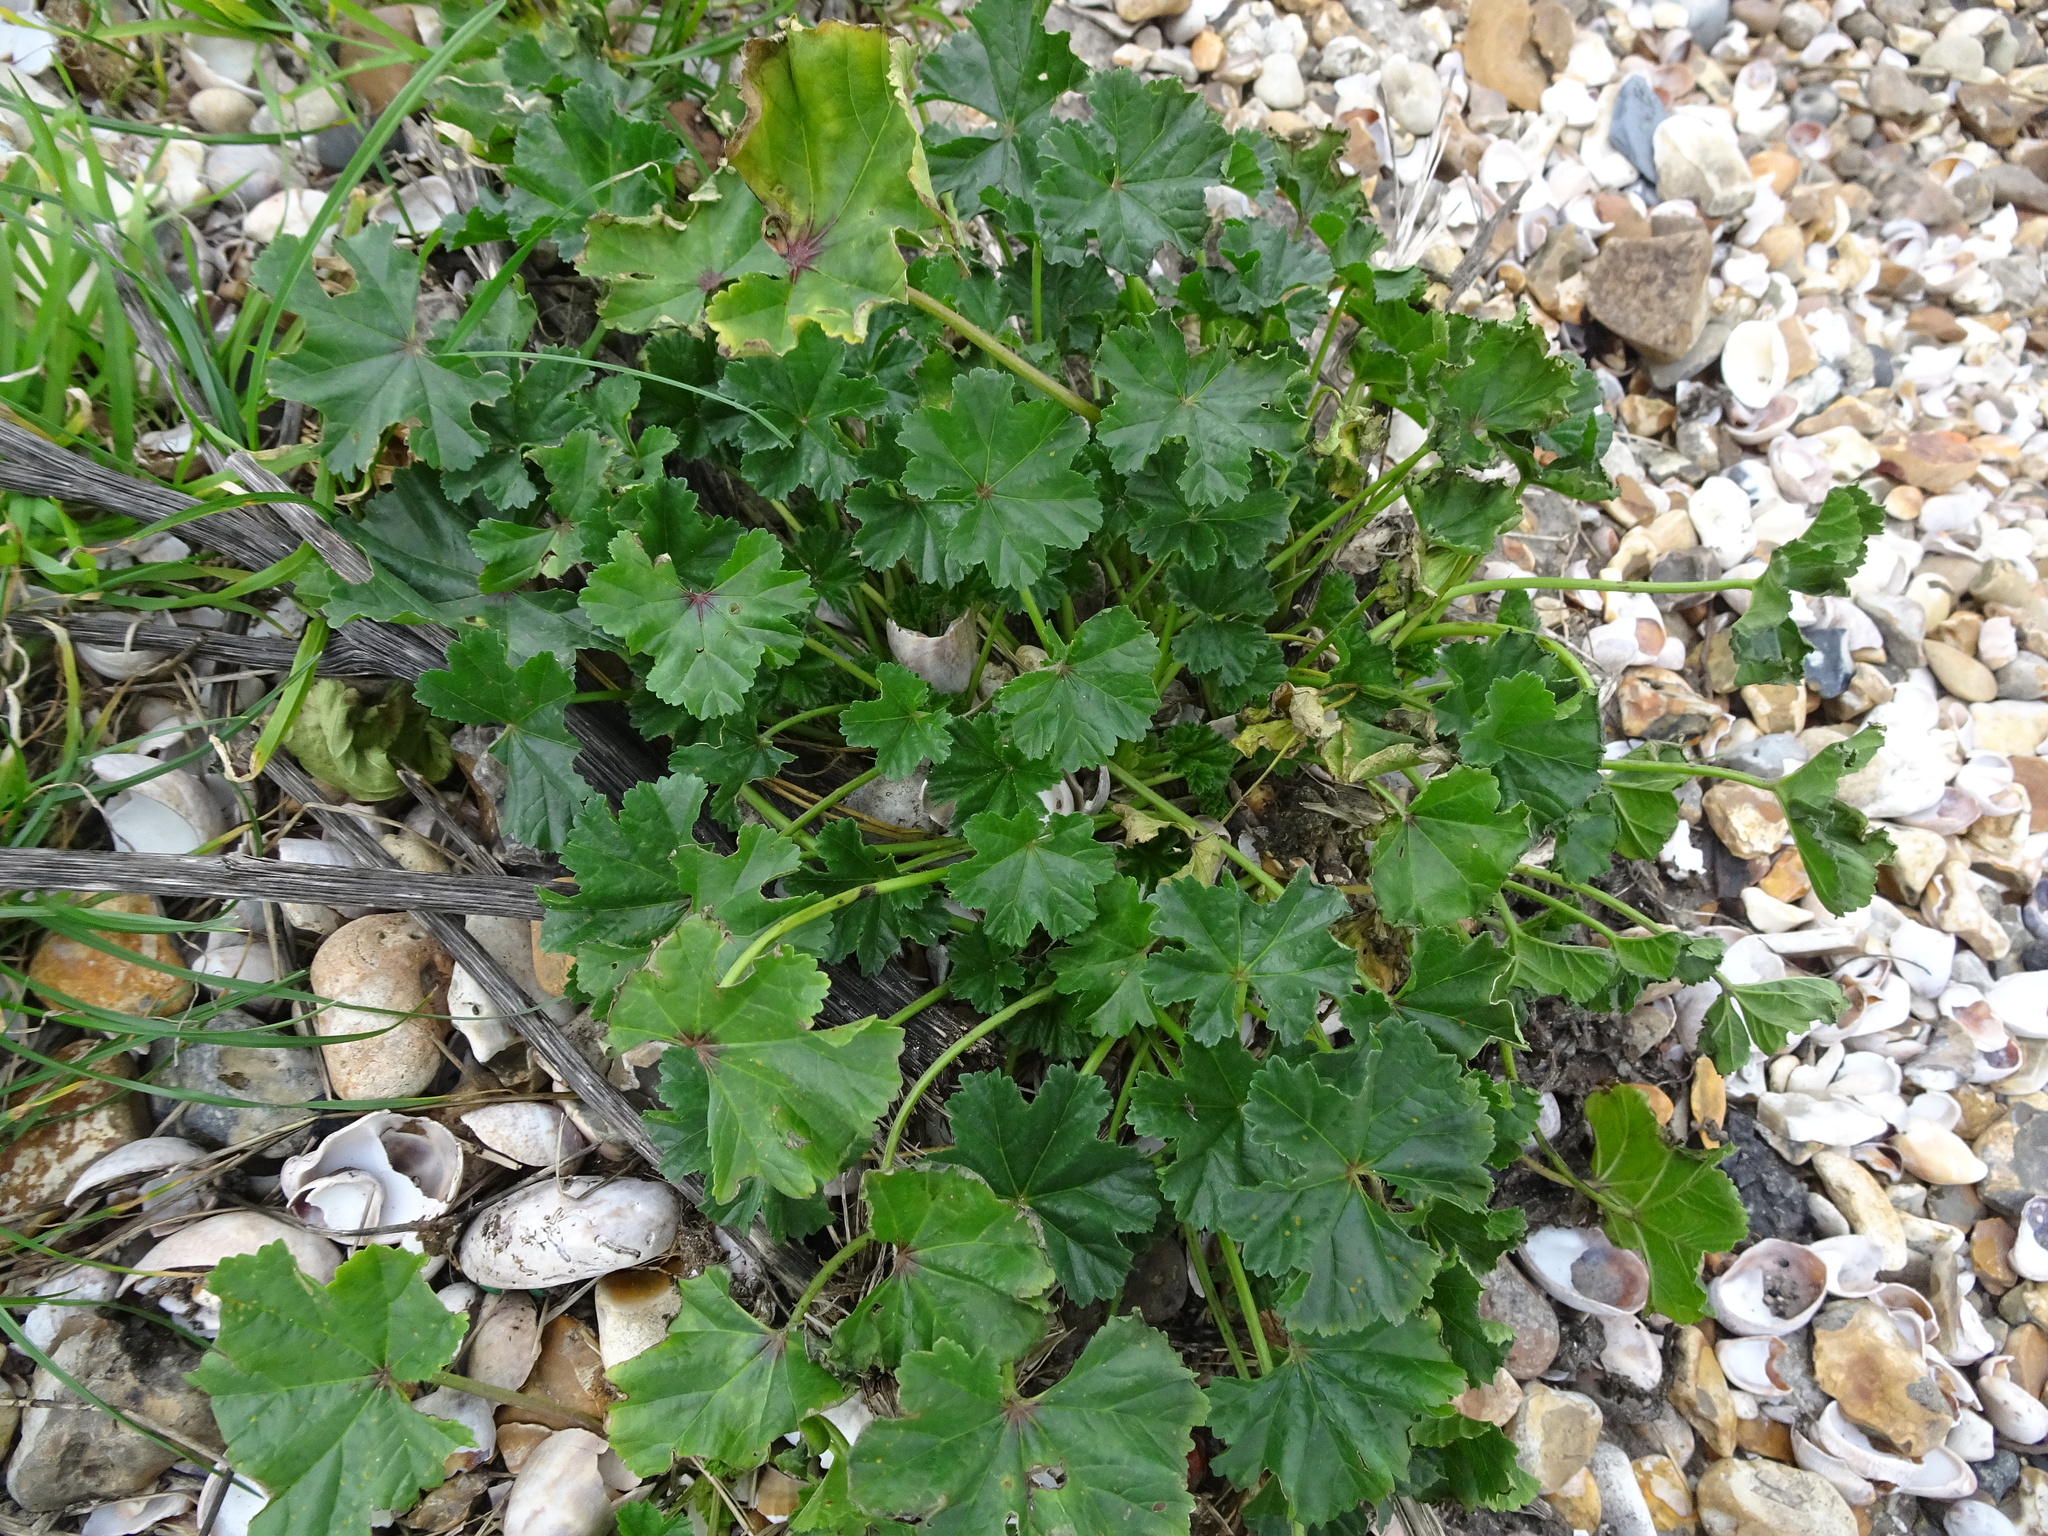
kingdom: Plantae
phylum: Tracheophyta
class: Magnoliopsida
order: Malvales
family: Malvaceae
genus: Malva
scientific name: Malva sylvestris
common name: Common mallow
